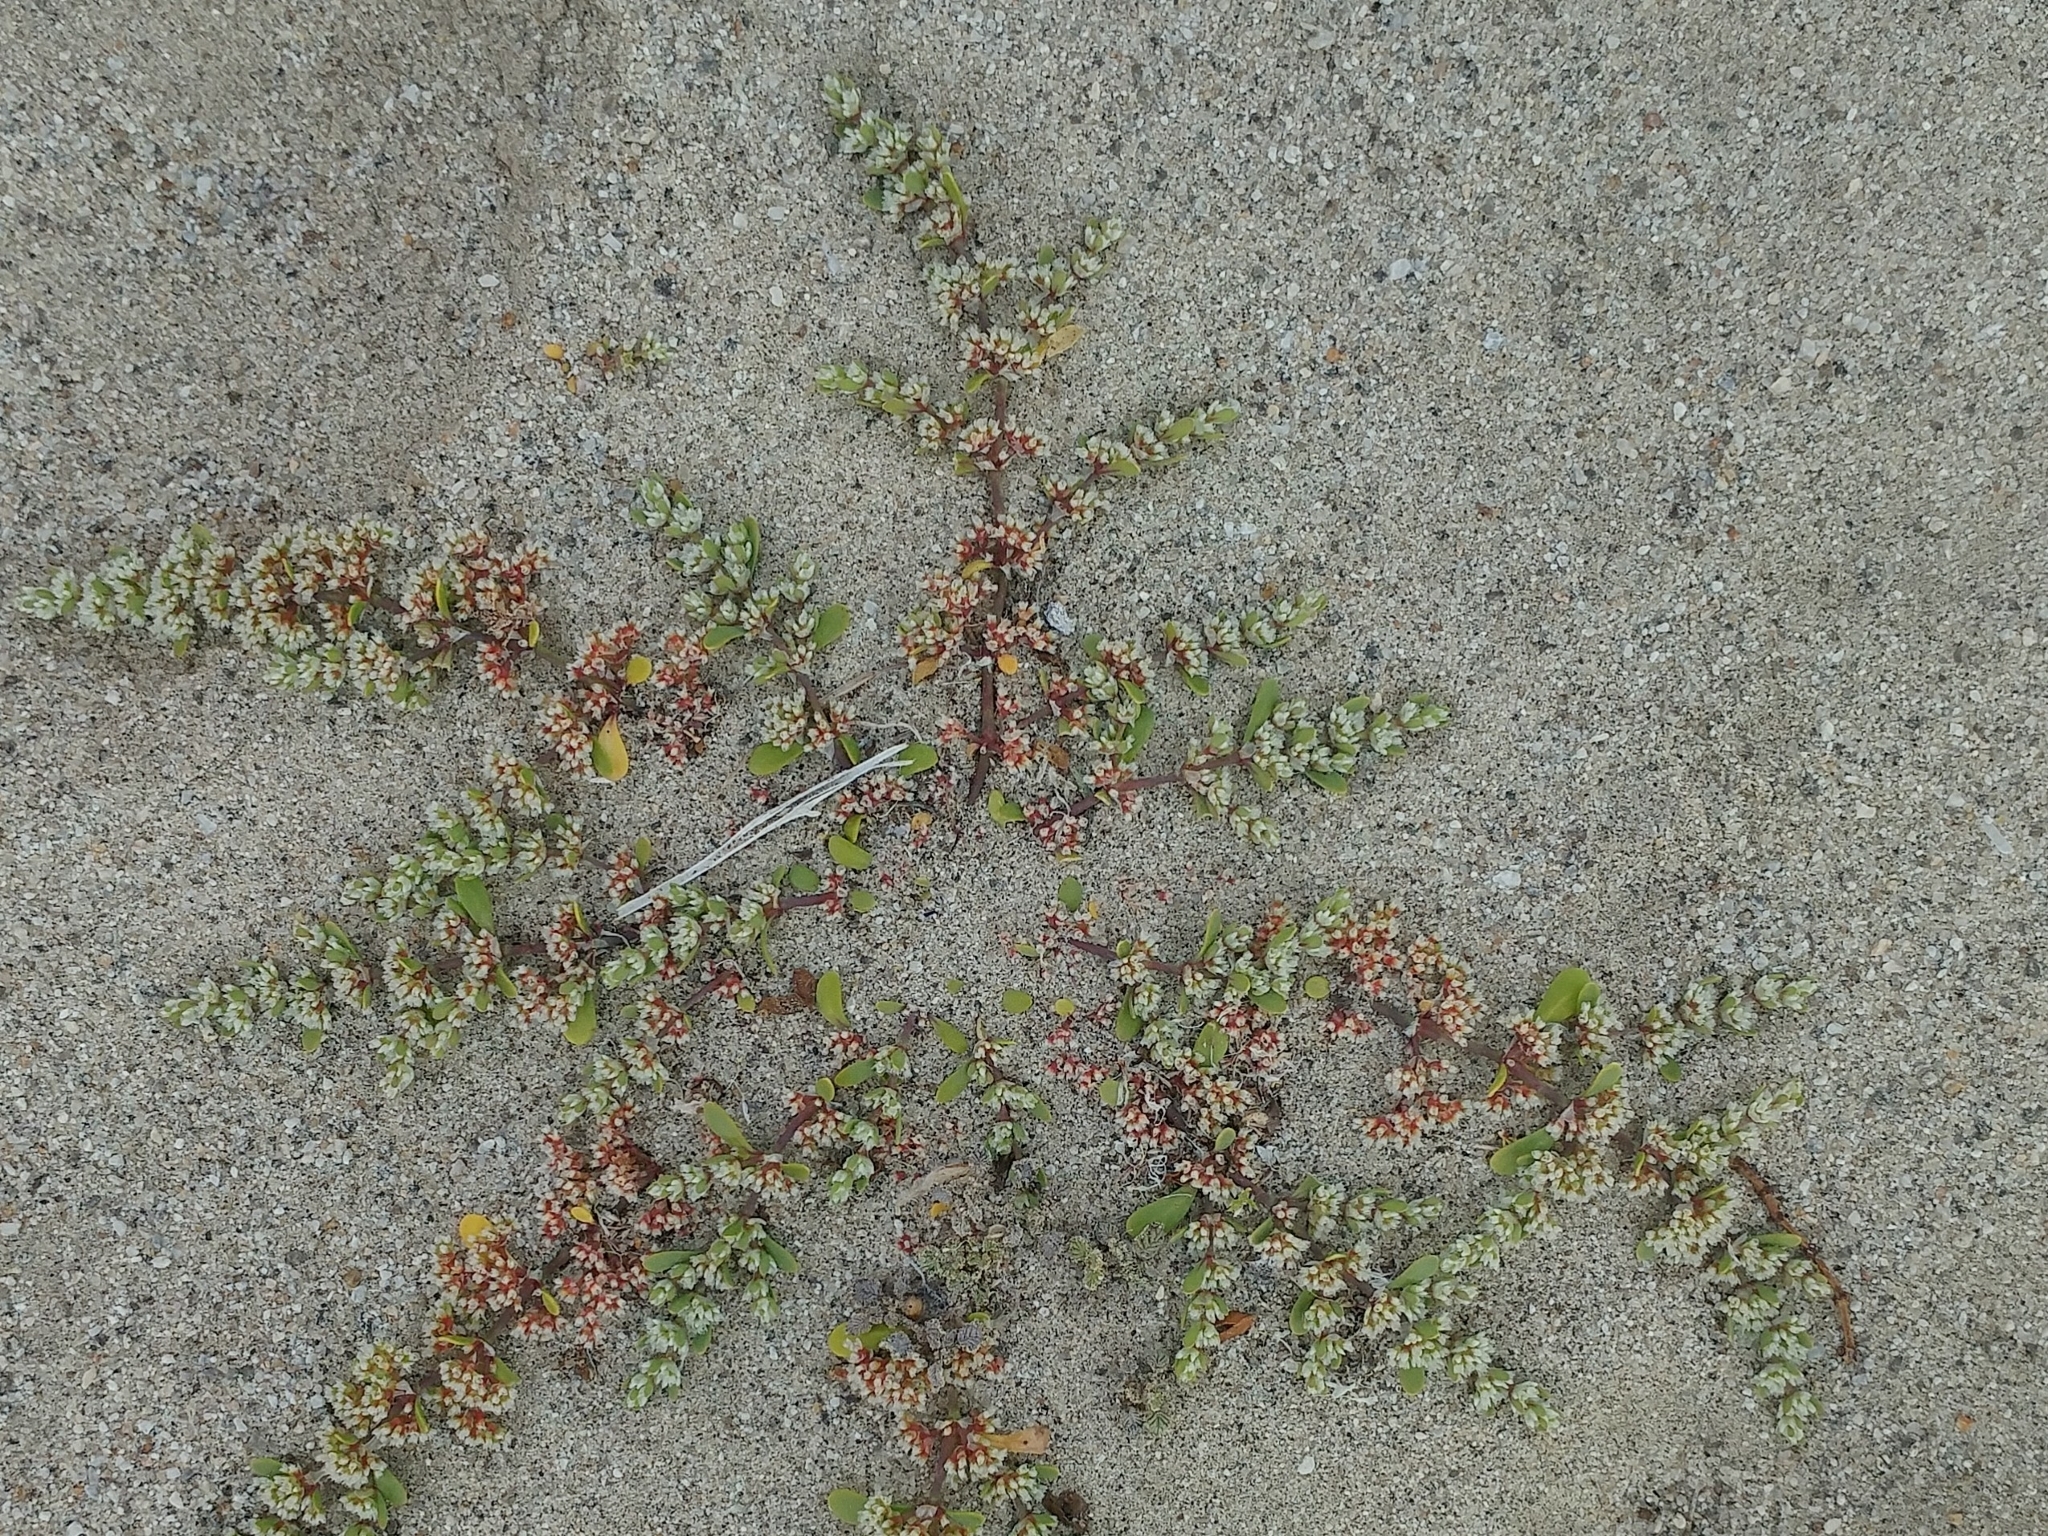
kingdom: Plantae
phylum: Tracheophyta
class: Magnoliopsida
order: Caryophyllales
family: Caryophyllaceae
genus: Achyronychia
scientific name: Achyronychia cooperi
